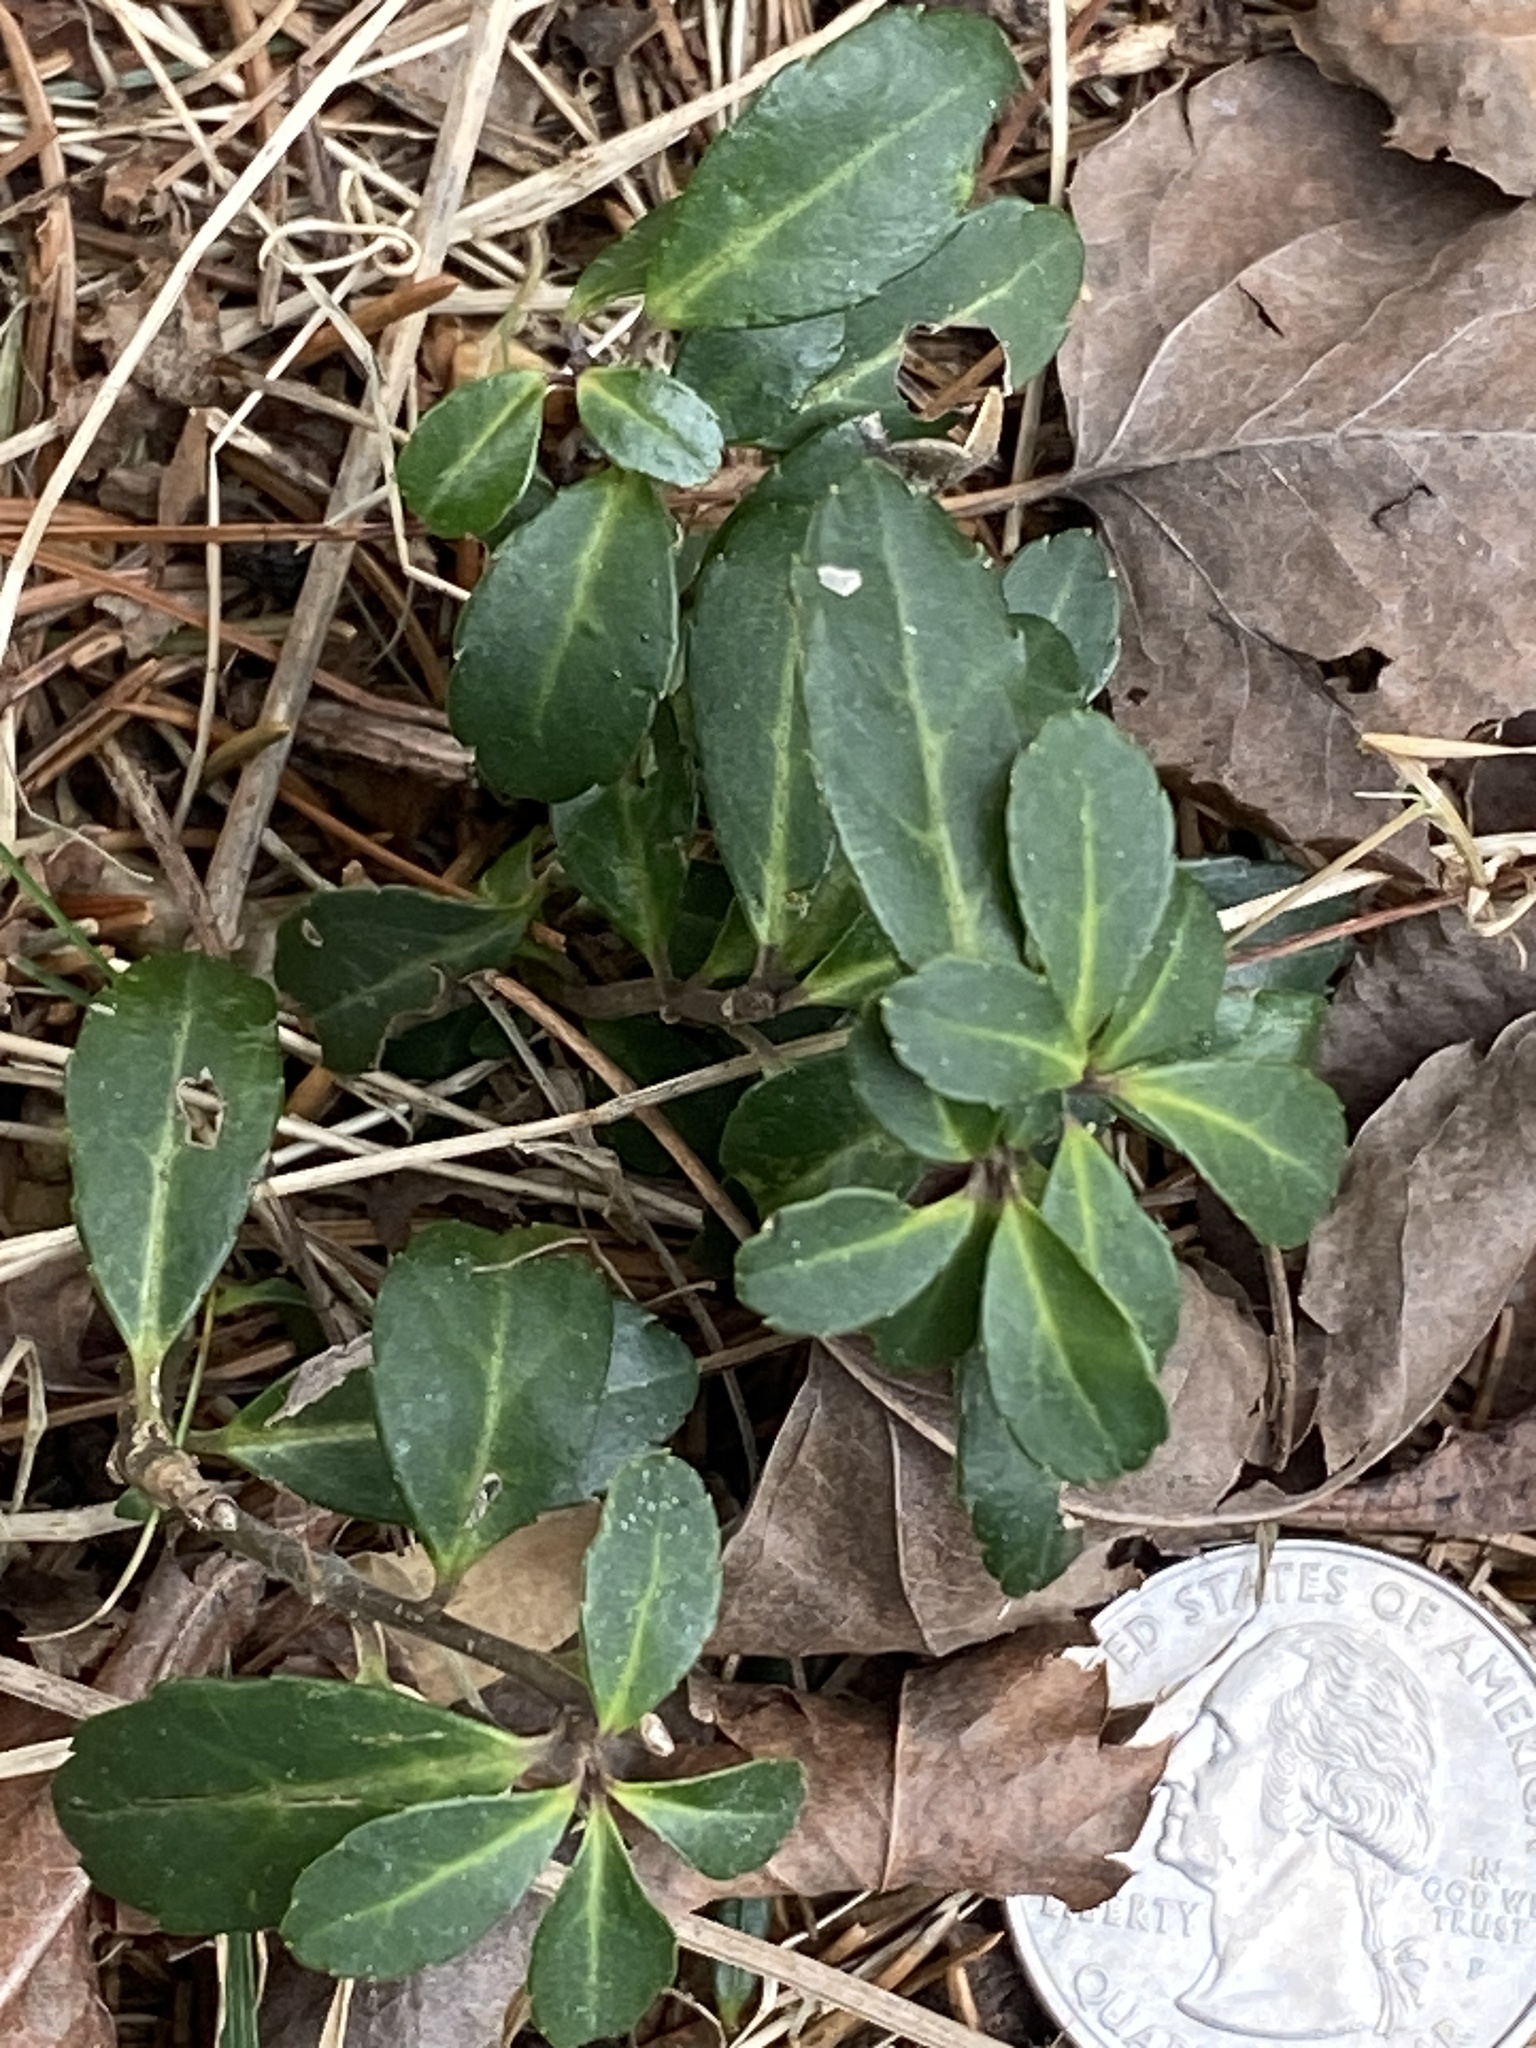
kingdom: Plantae
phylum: Tracheophyta
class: Magnoliopsida
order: Aquifoliales
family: Aquifoliaceae
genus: Ilex
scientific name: Ilex crenata
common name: Japanese holly
